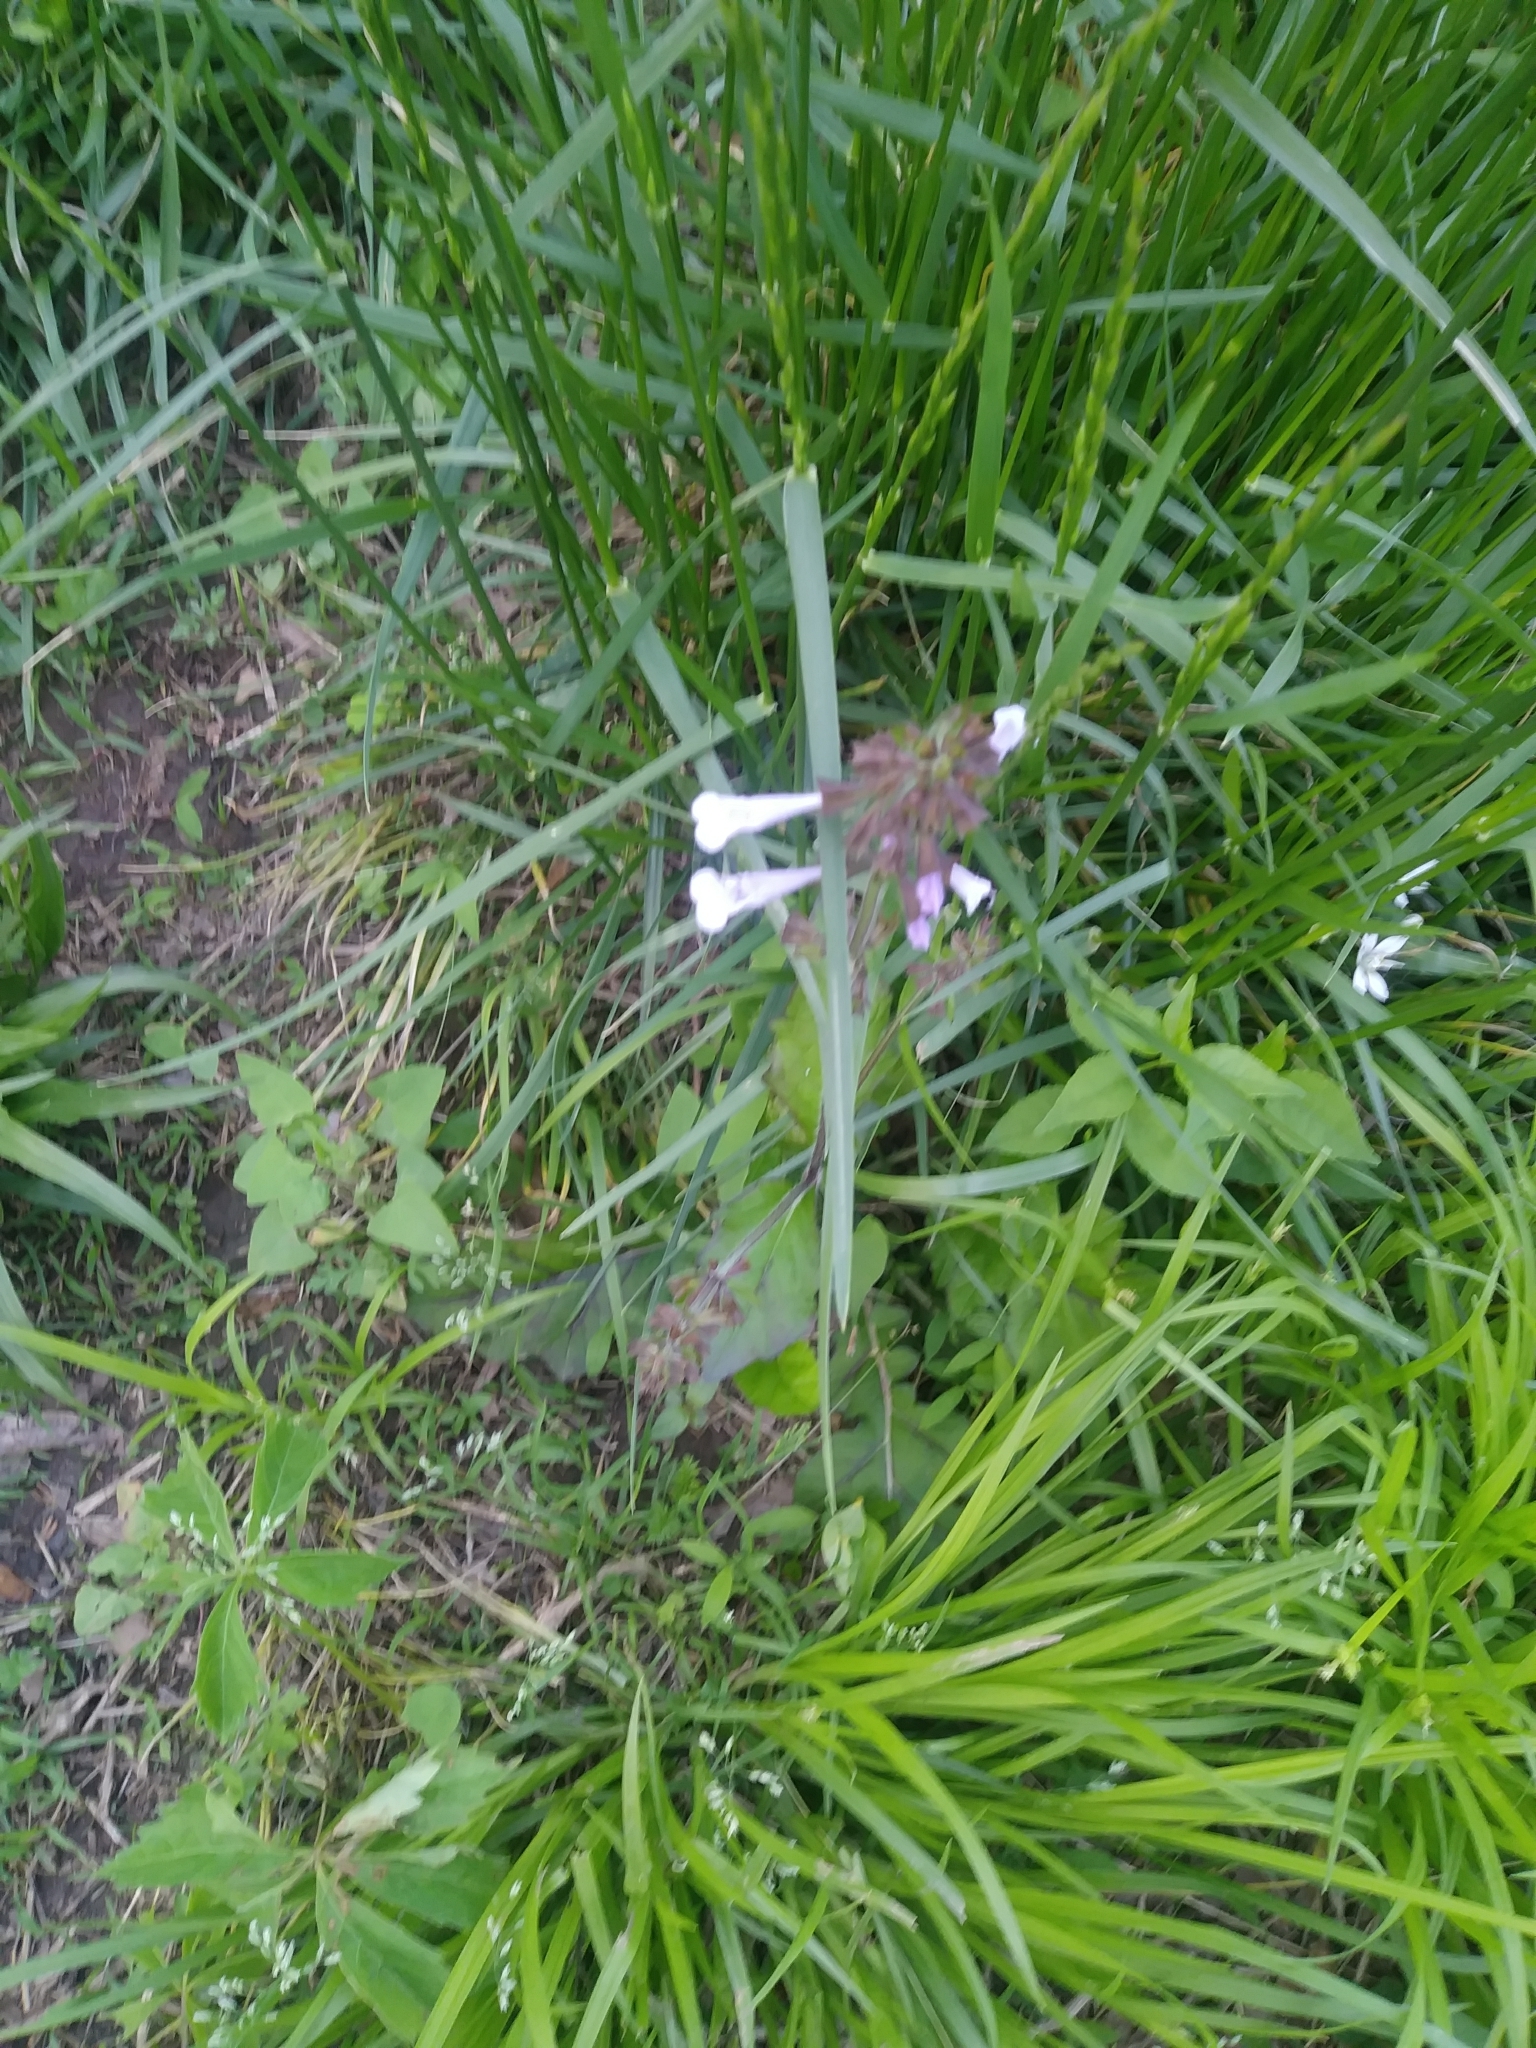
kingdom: Plantae
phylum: Tracheophyta
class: Magnoliopsida
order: Lamiales
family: Lamiaceae
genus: Salvia
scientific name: Salvia lyrata
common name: Cancerweed
